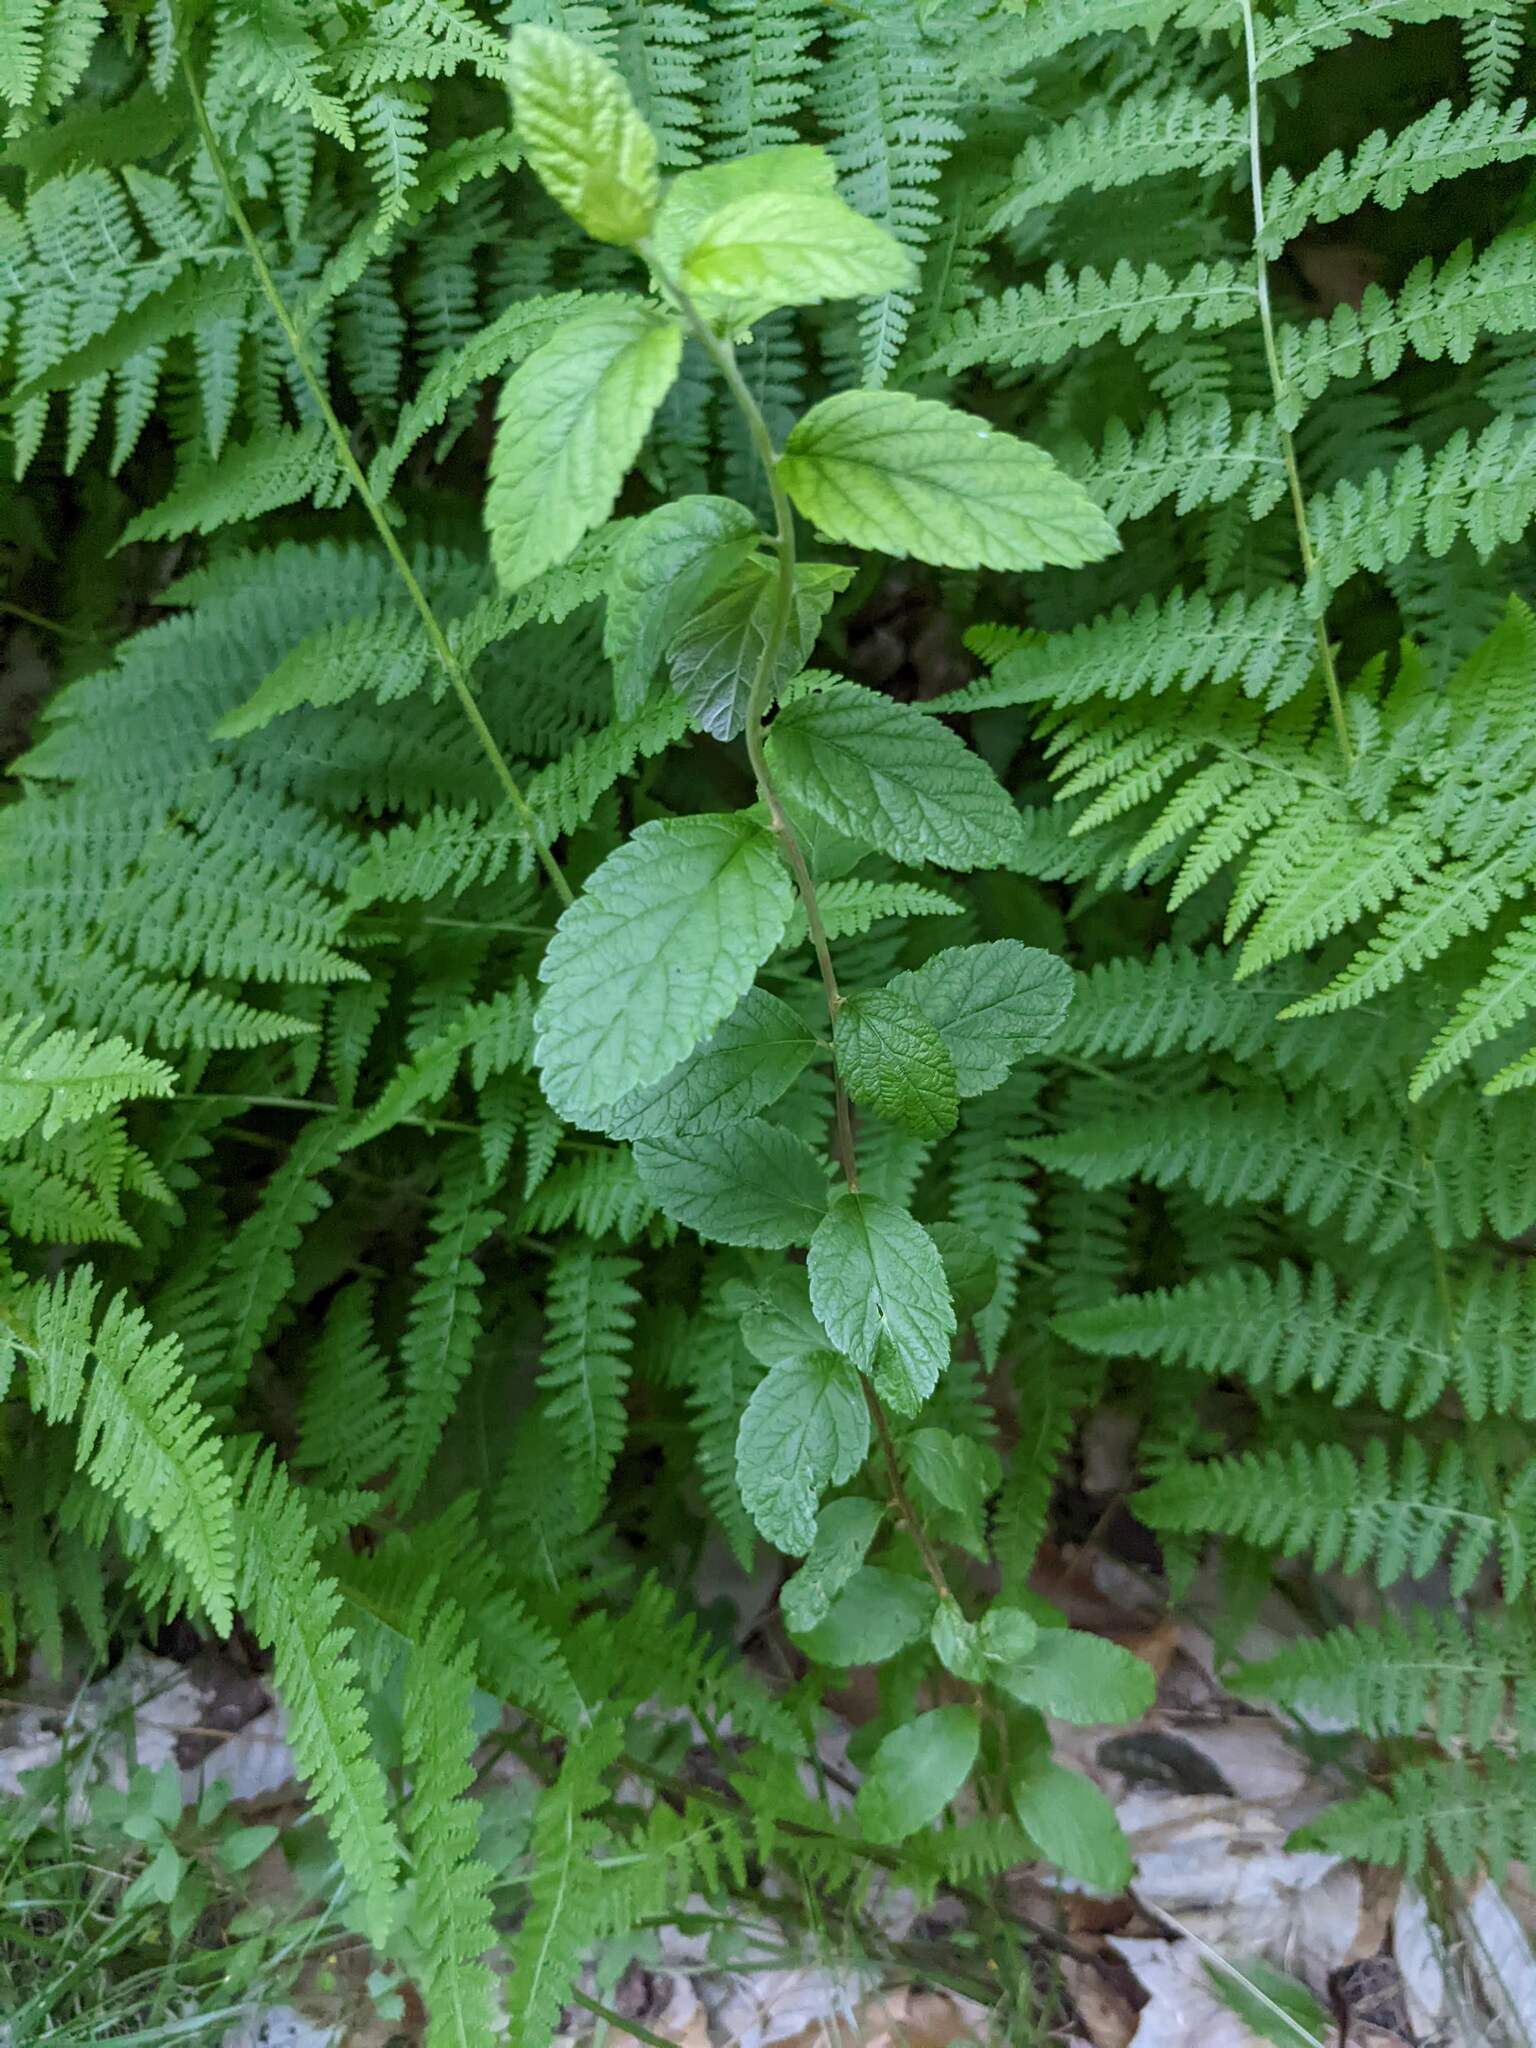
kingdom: Plantae
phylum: Tracheophyta
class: Magnoliopsida
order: Rosales
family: Rosaceae
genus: Spiraea
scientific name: Spiraea tomentosa
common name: Hardhack
